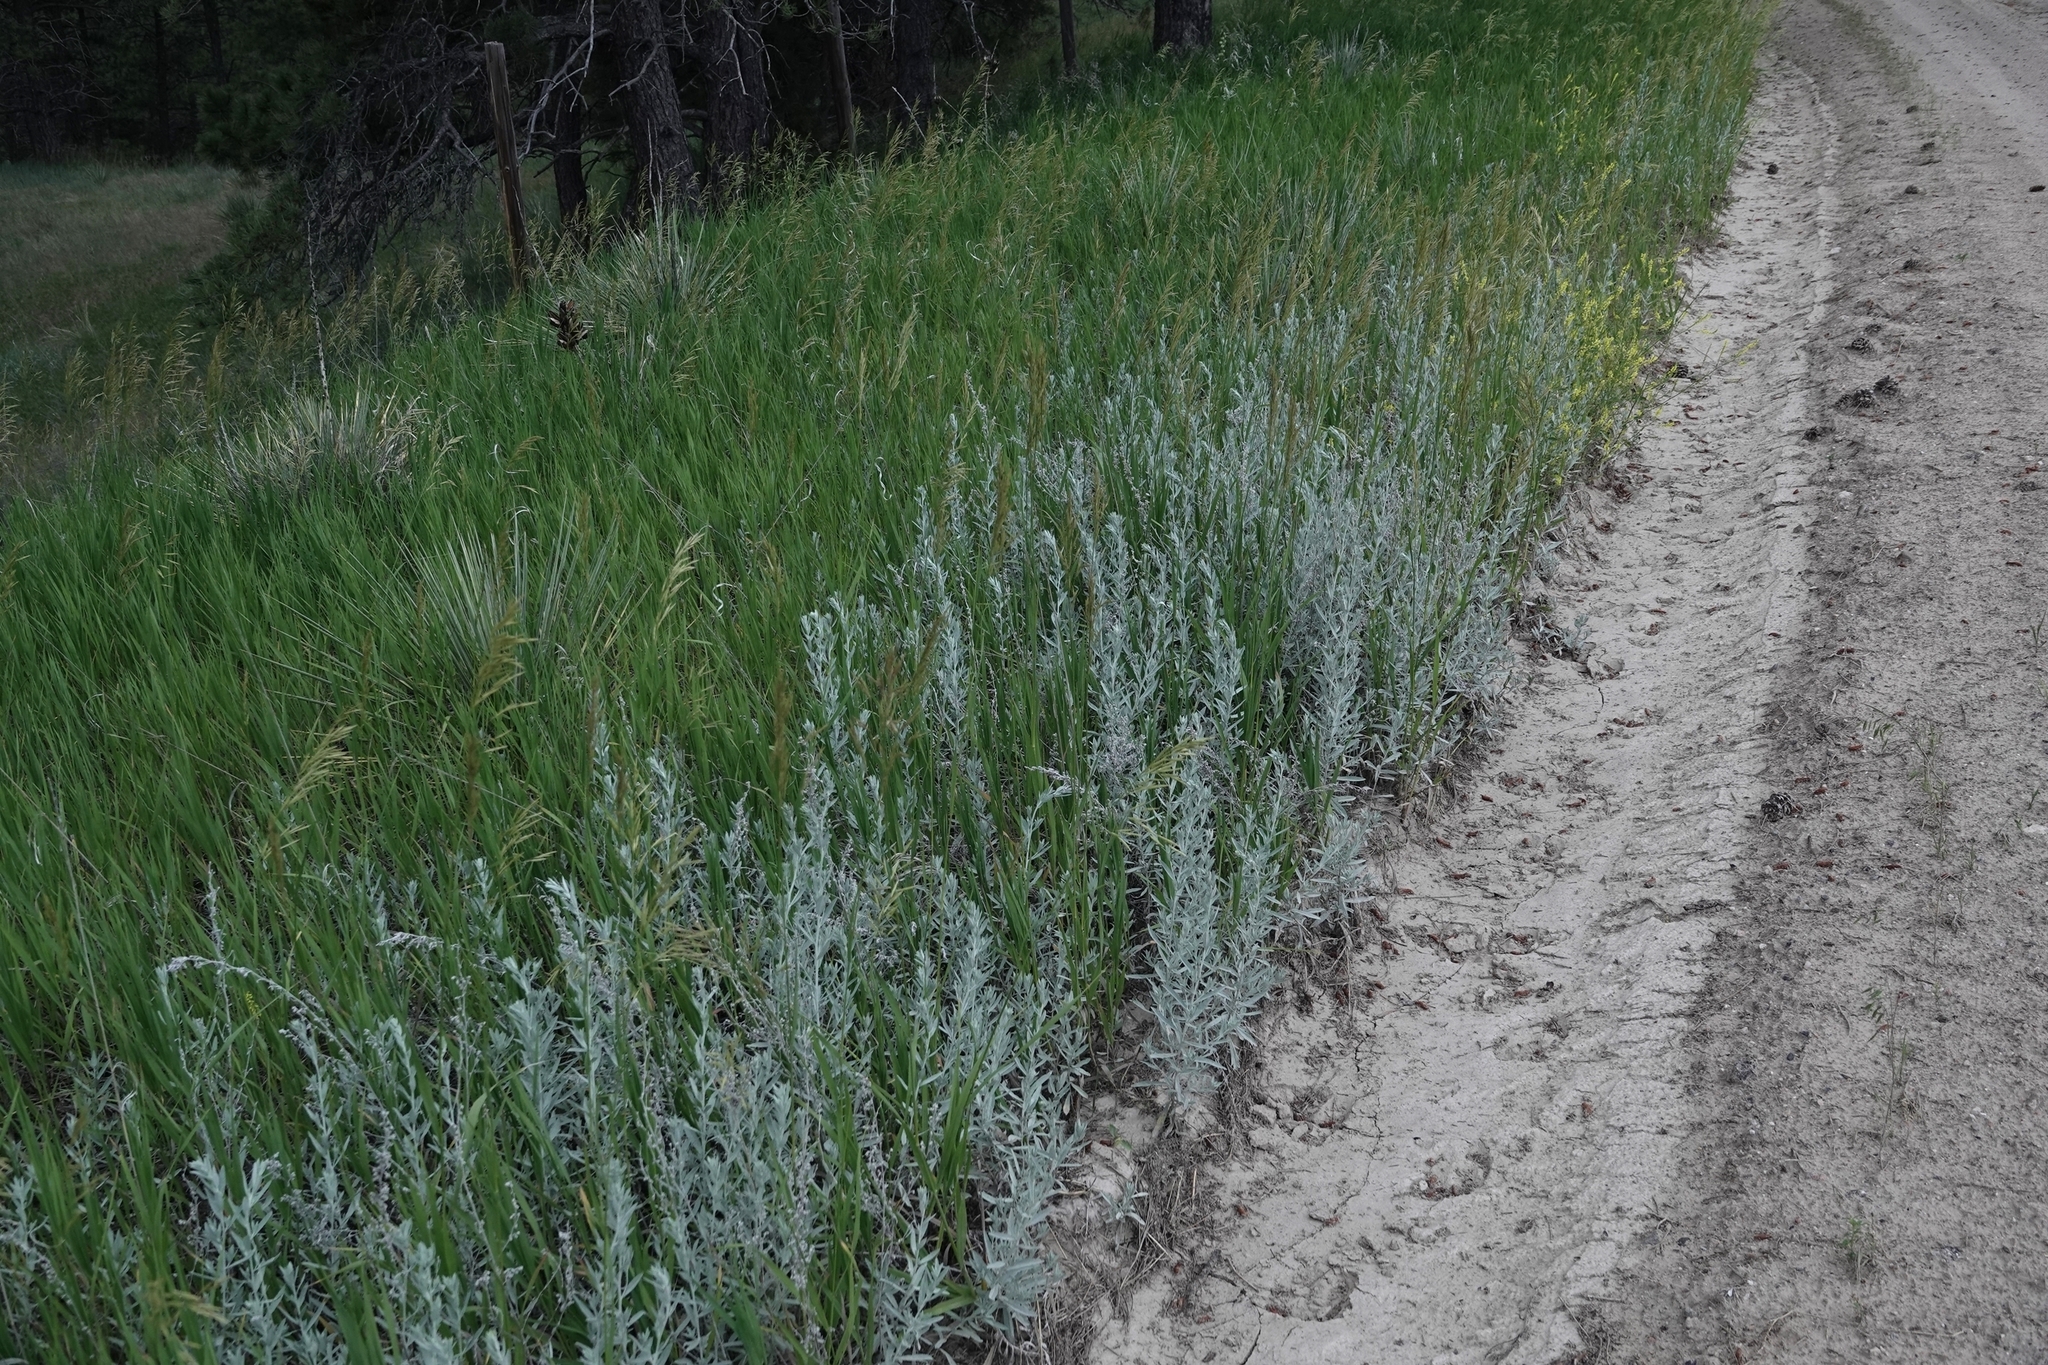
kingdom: Plantae
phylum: Tracheophyta
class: Magnoliopsida
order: Asterales
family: Asteraceae
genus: Artemisia
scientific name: Artemisia ludoviciana
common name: Western mugwort
